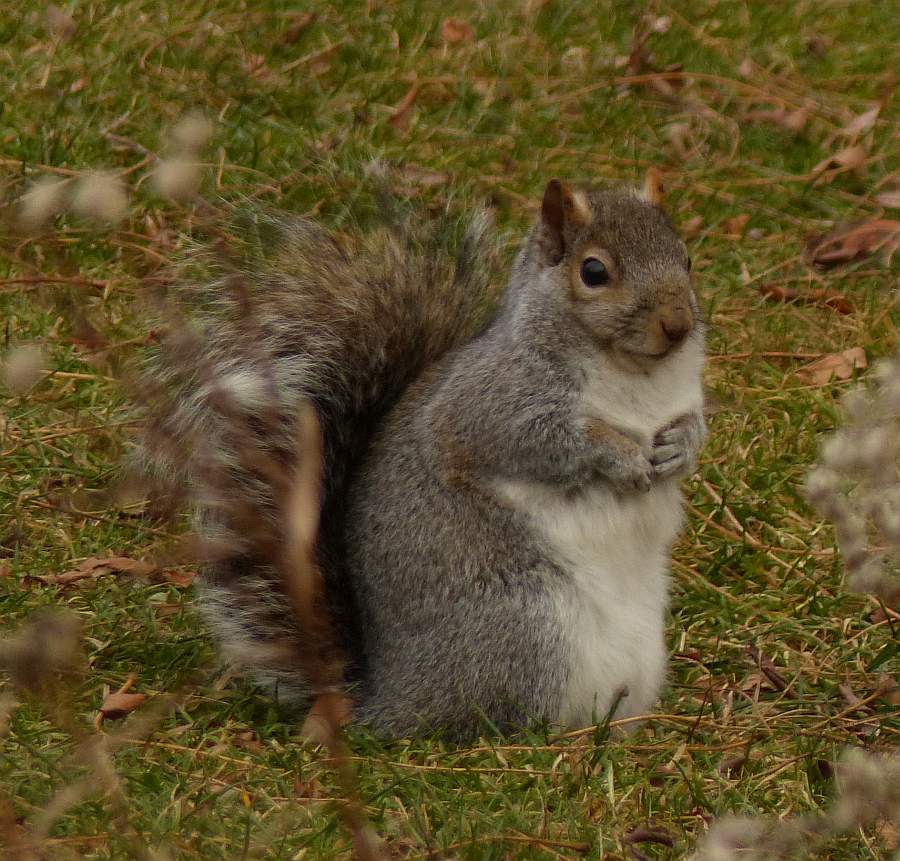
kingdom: Animalia
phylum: Chordata
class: Mammalia
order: Rodentia
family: Sciuridae
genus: Sciurus
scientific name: Sciurus carolinensis
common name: Eastern gray squirrel
